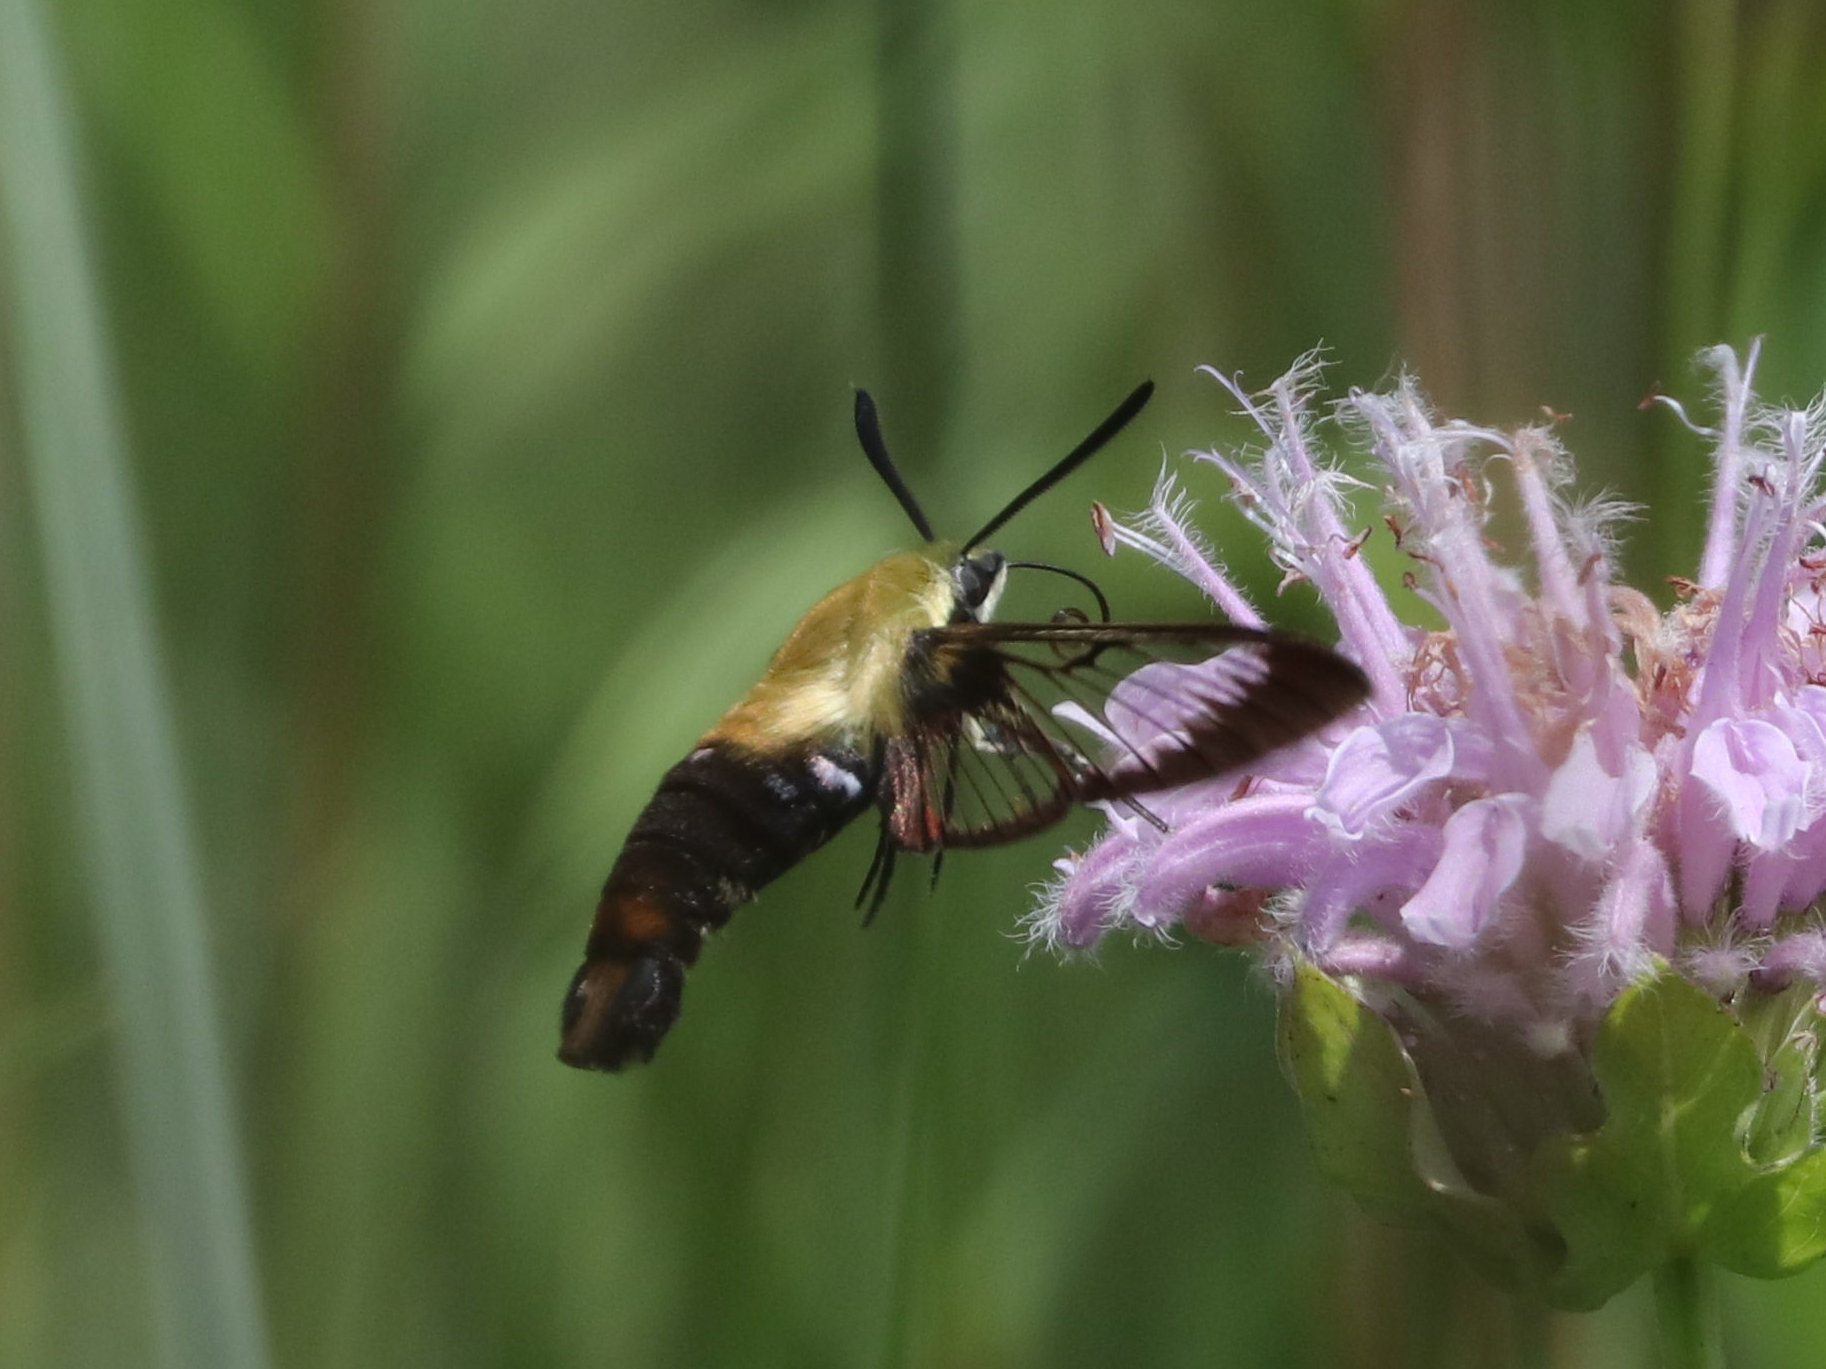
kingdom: Animalia
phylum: Arthropoda
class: Insecta
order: Lepidoptera
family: Sphingidae
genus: Hemaris
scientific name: Hemaris diffinis
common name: Bumblebee moth
